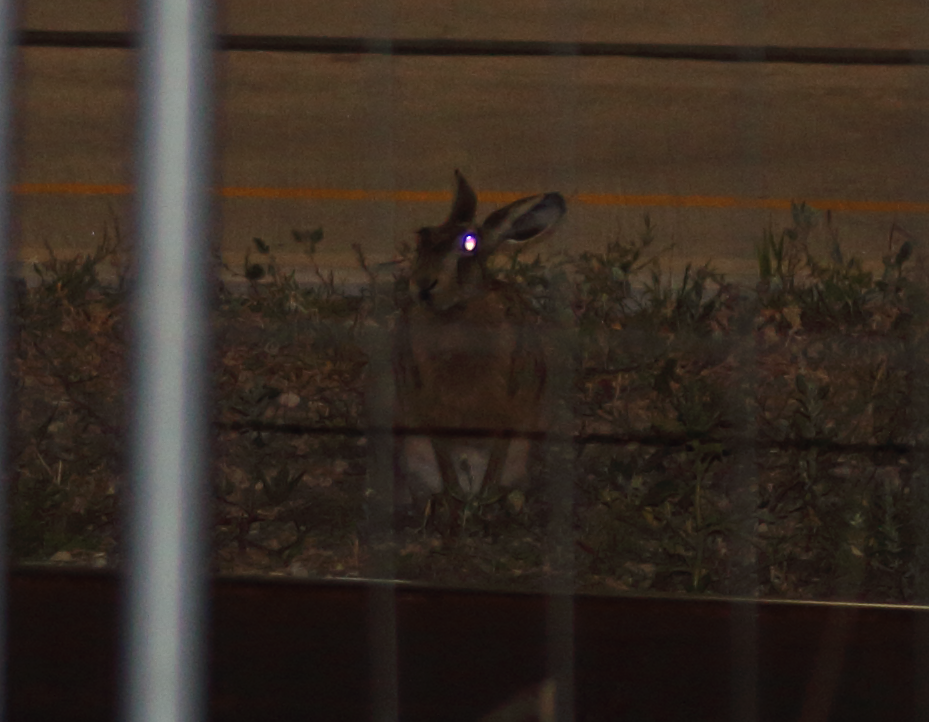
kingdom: Animalia
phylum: Chordata
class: Mammalia
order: Lagomorpha
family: Leporidae
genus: Lepus
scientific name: Lepus europaeus
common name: European hare
